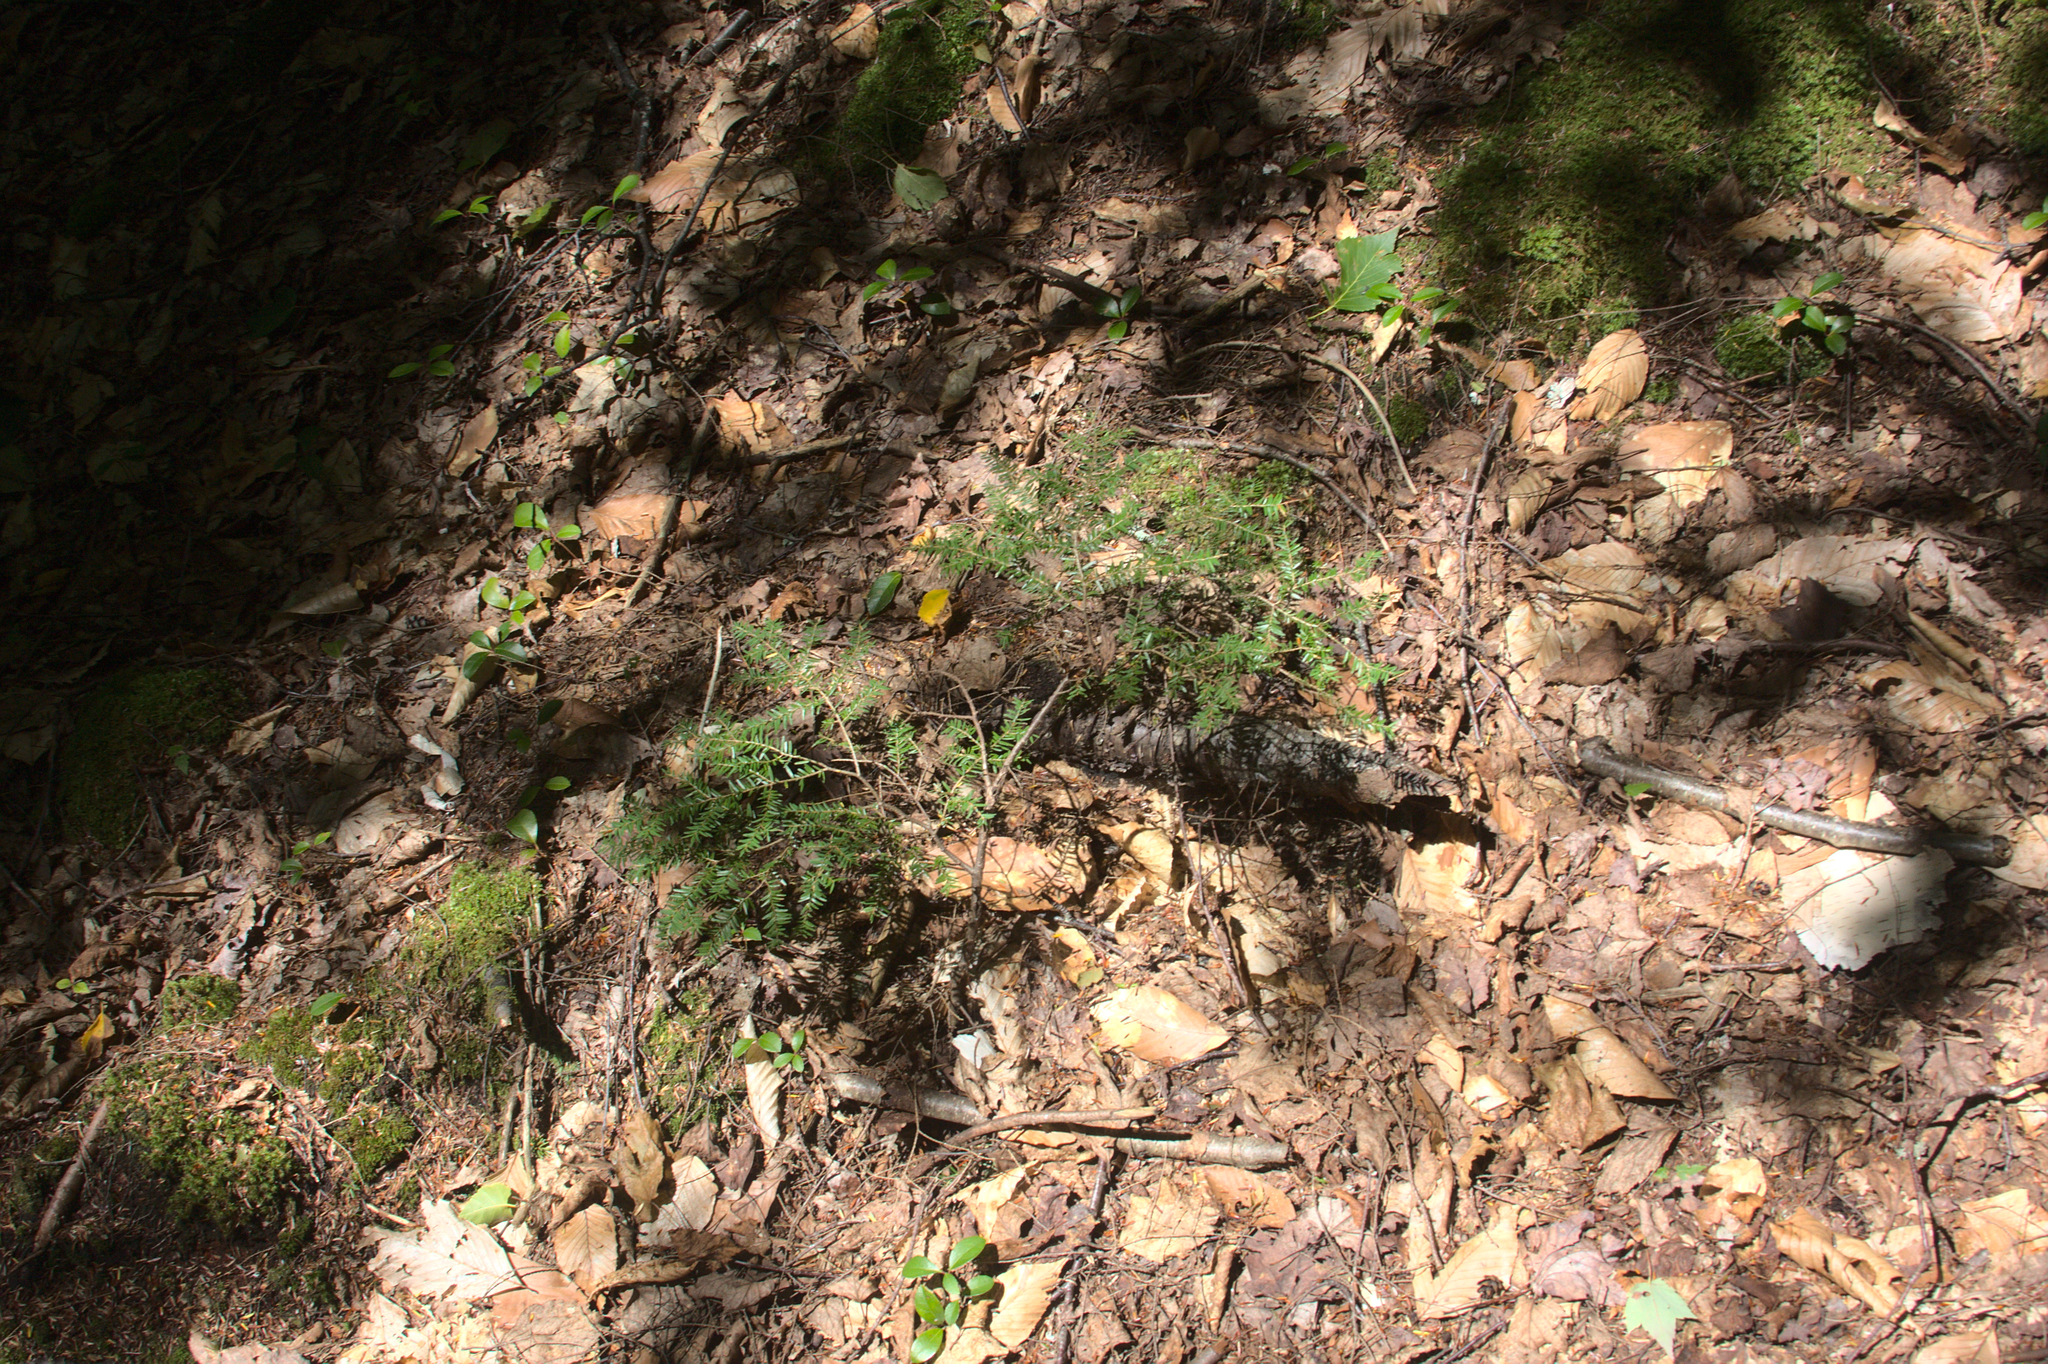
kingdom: Plantae
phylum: Tracheophyta
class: Pinopsida
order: Pinales
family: Pinaceae
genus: Tsuga
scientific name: Tsuga canadensis
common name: Eastern hemlock
